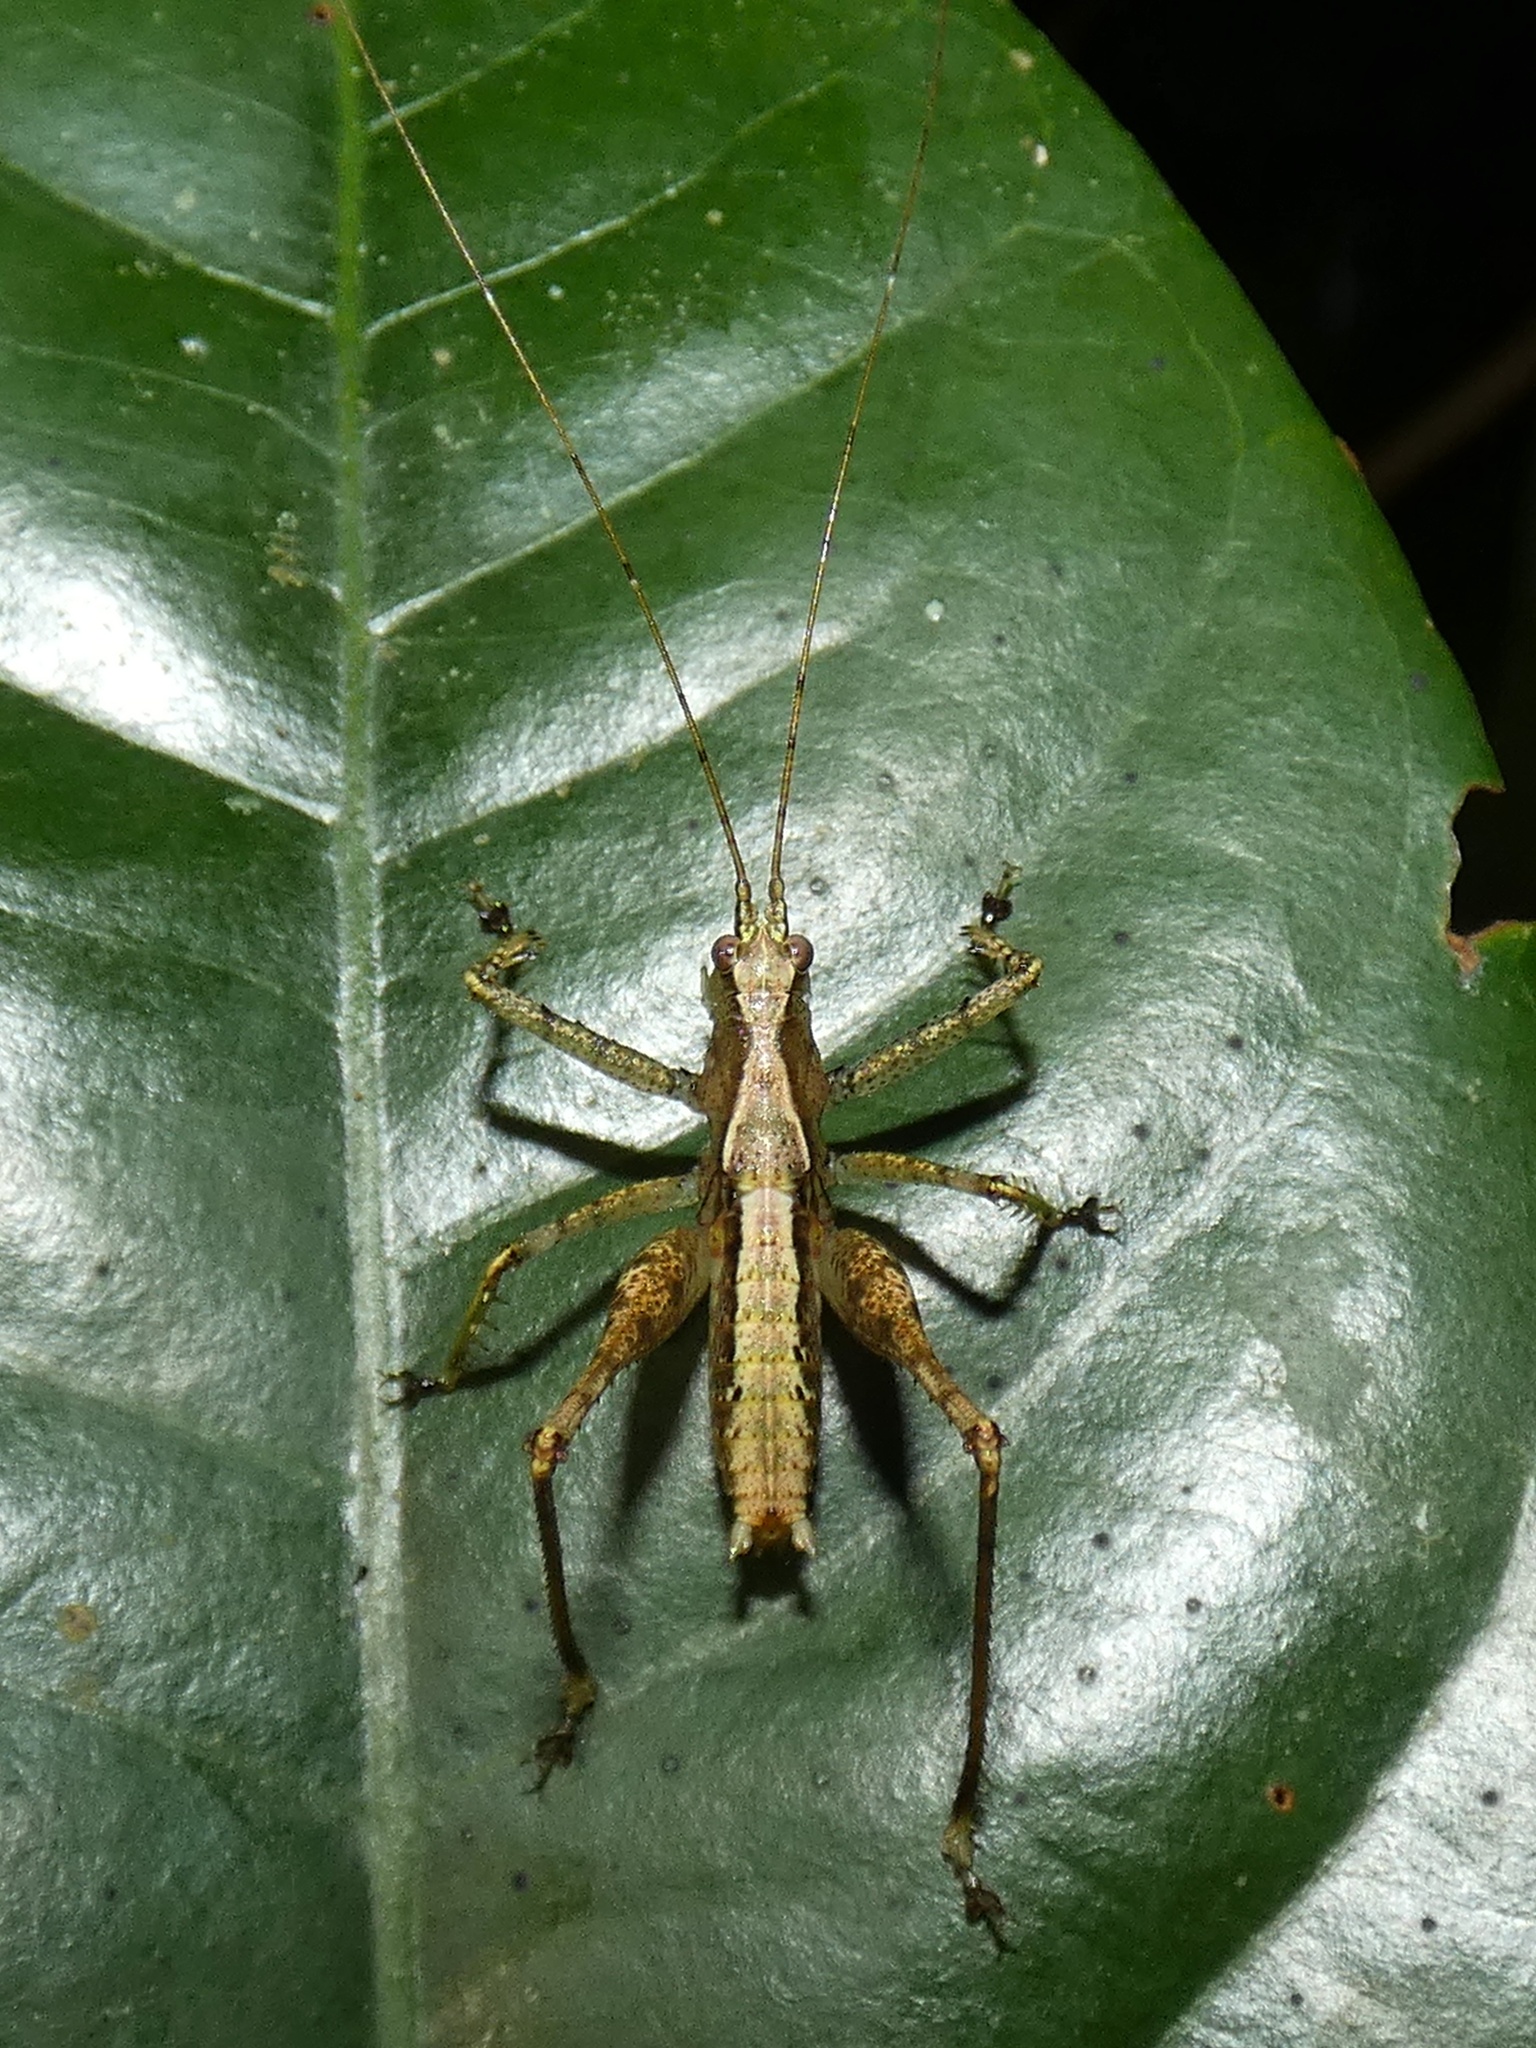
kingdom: Animalia
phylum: Arthropoda
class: Insecta
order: Orthoptera
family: Tettigoniidae
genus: Xingbaoia
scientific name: Xingbaoia karakara
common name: Jin's ginger katydid
